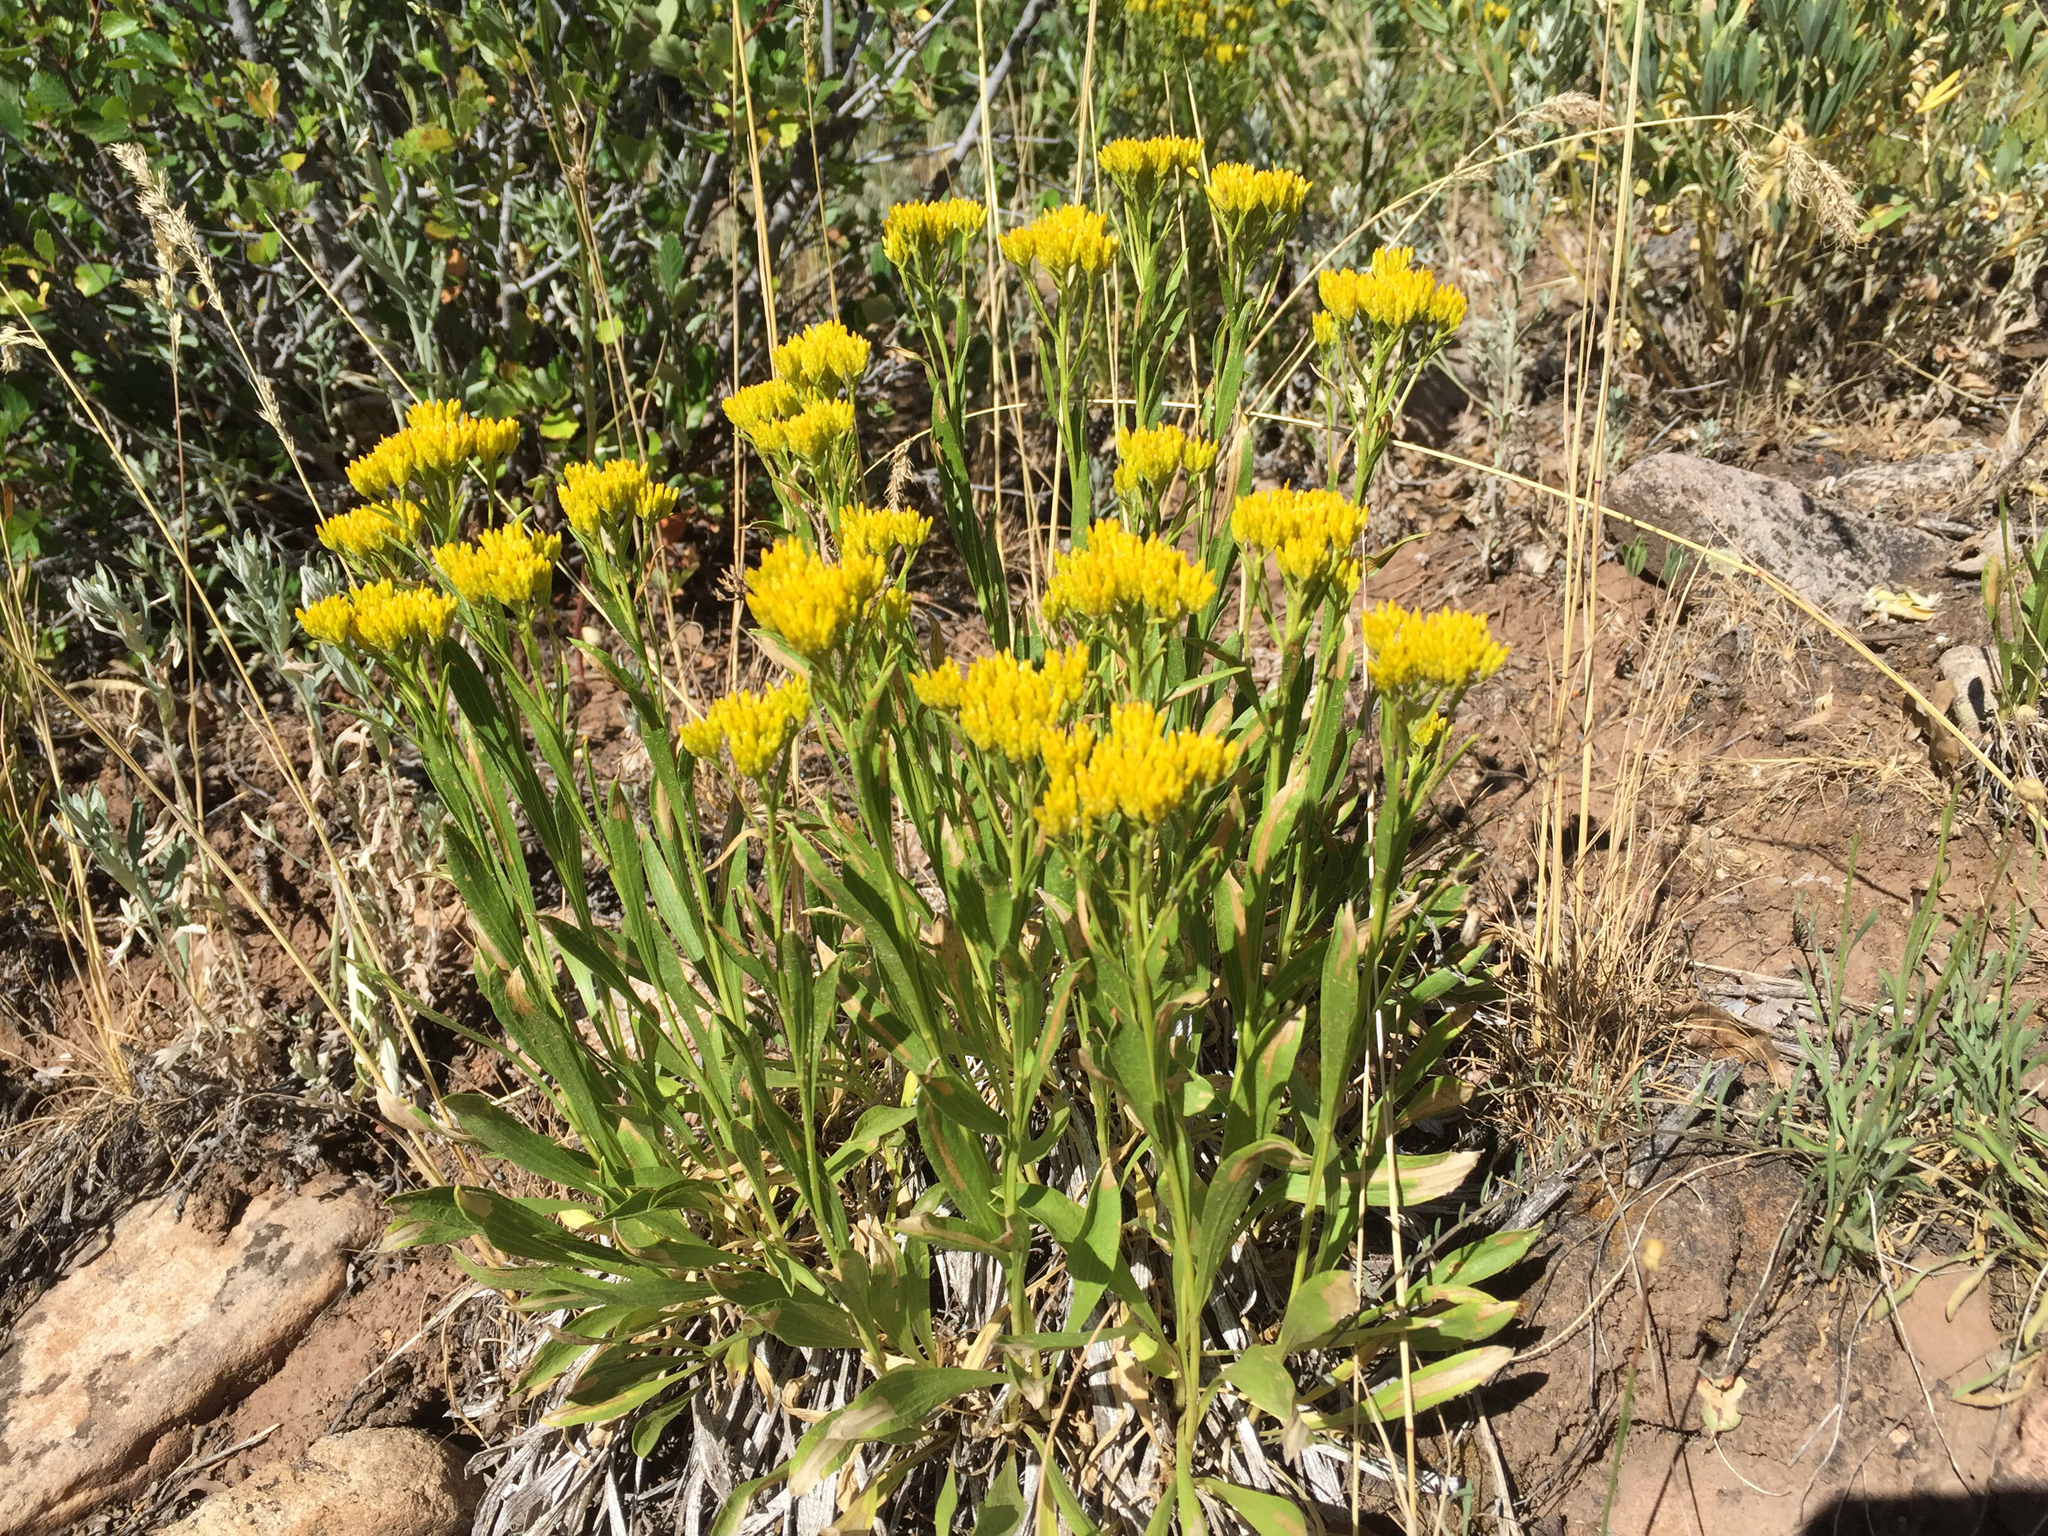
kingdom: Plantae
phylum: Tracheophyta
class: Magnoliopsida
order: Asterales
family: Asteraceae
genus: Petradoria
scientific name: Petradoria pumila
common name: Rock-goldenrod
